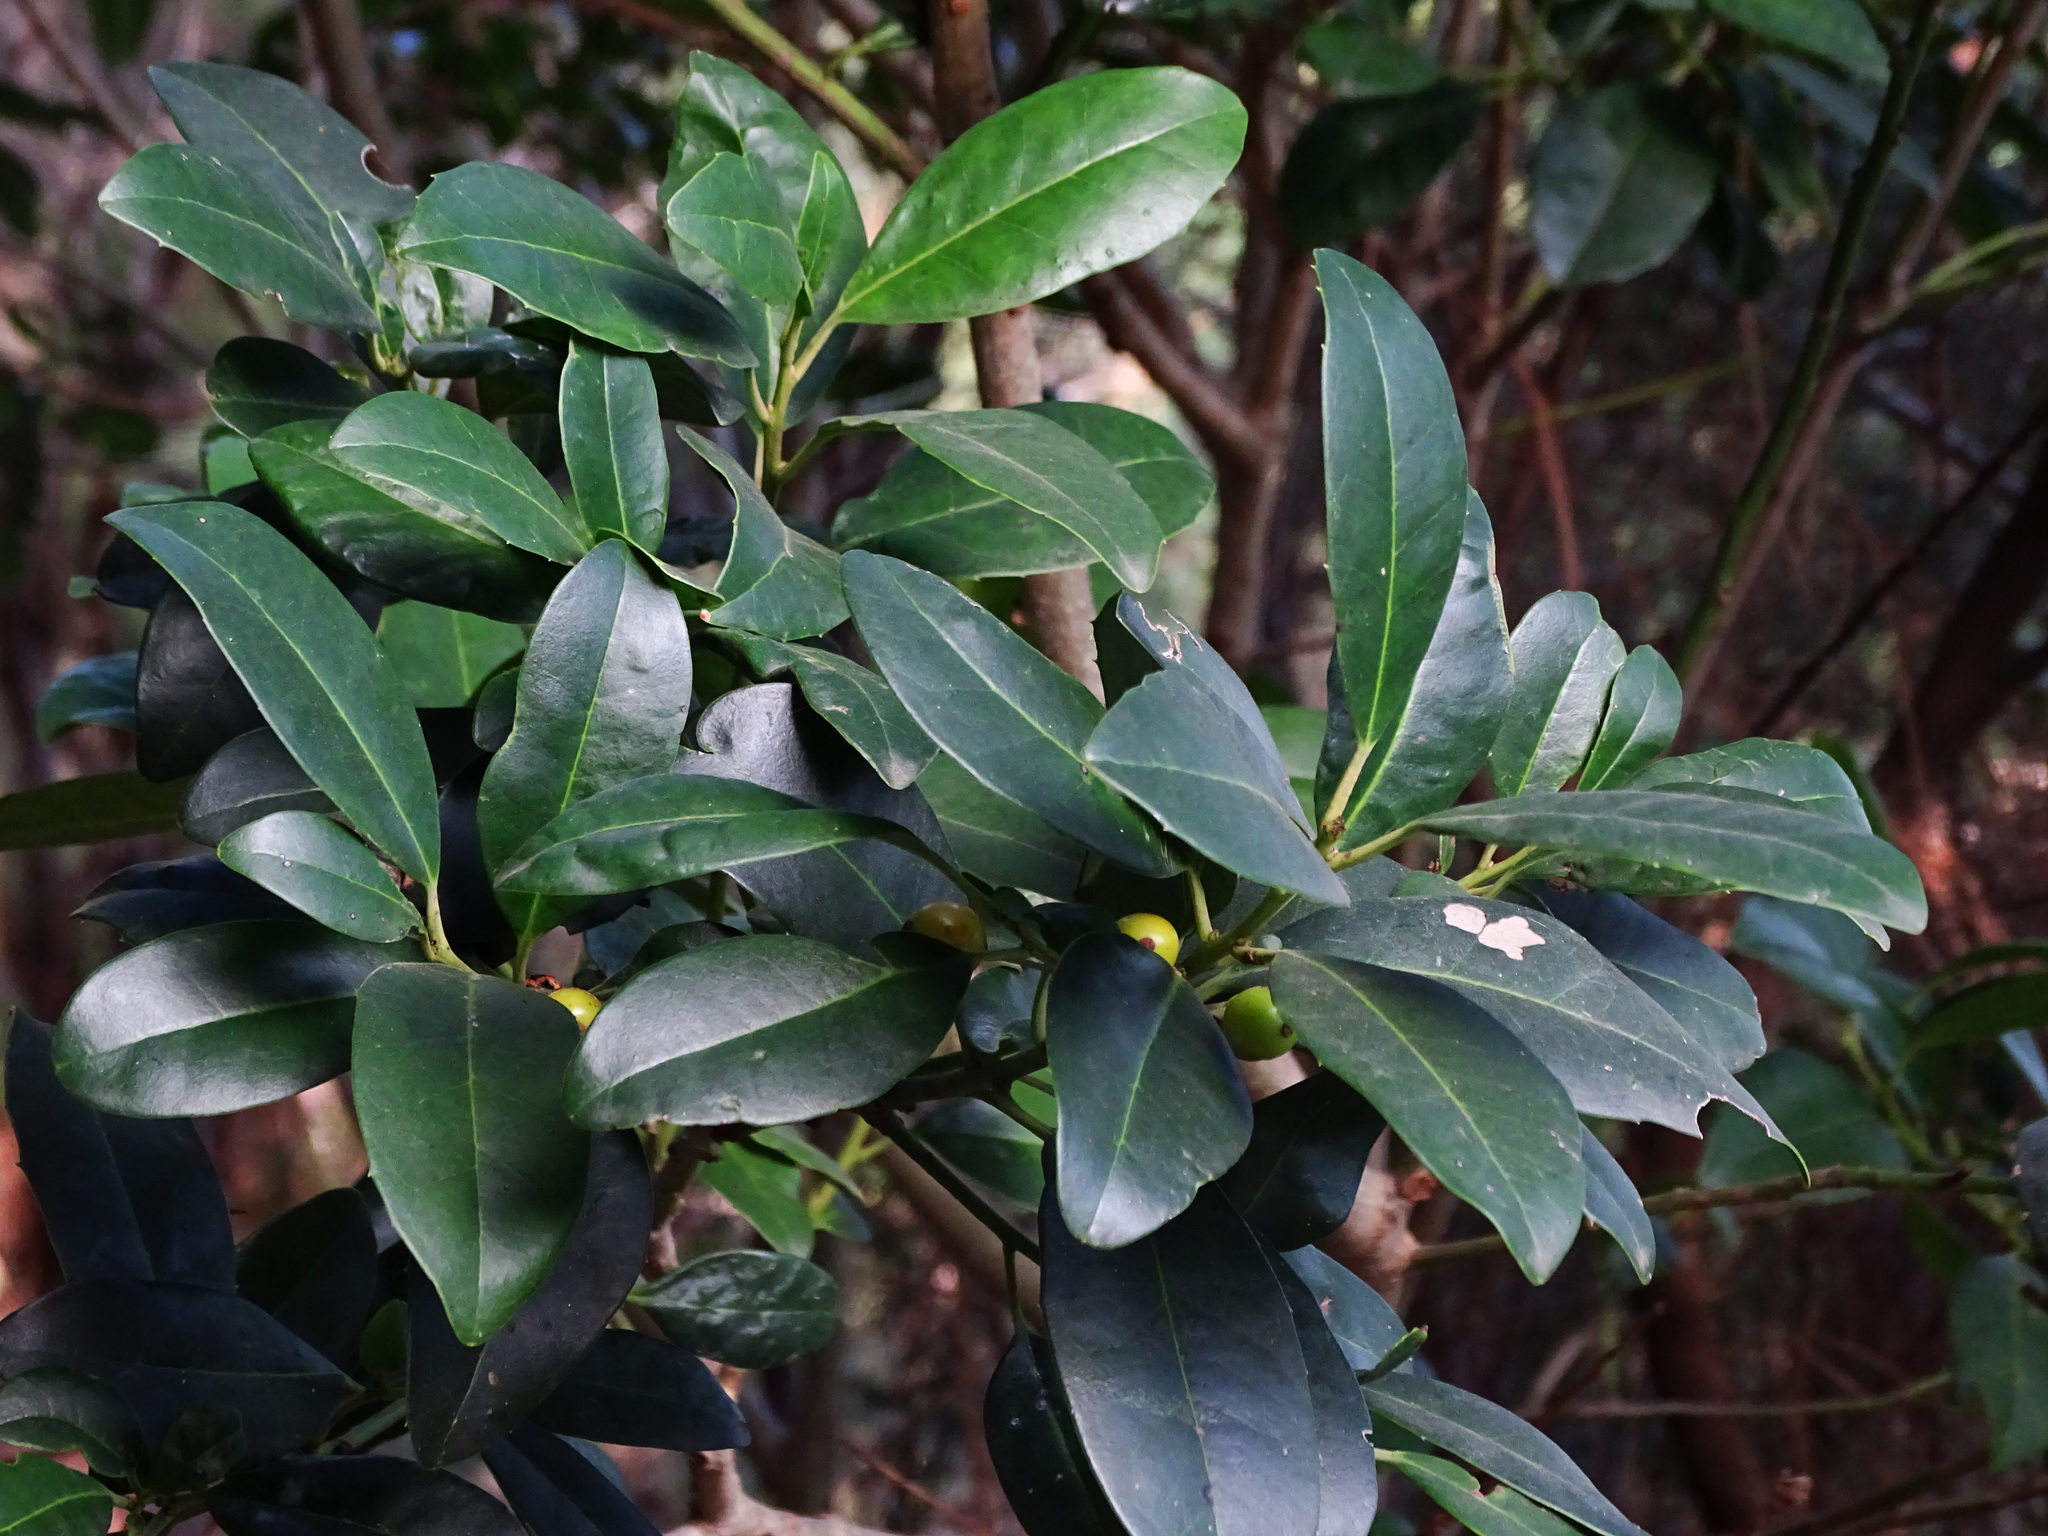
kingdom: Plantae
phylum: Tracheophyta
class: Magnoliopsida
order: Aquifoliales
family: Aquifoliaceae
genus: Ilex
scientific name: Ilex canariensis
